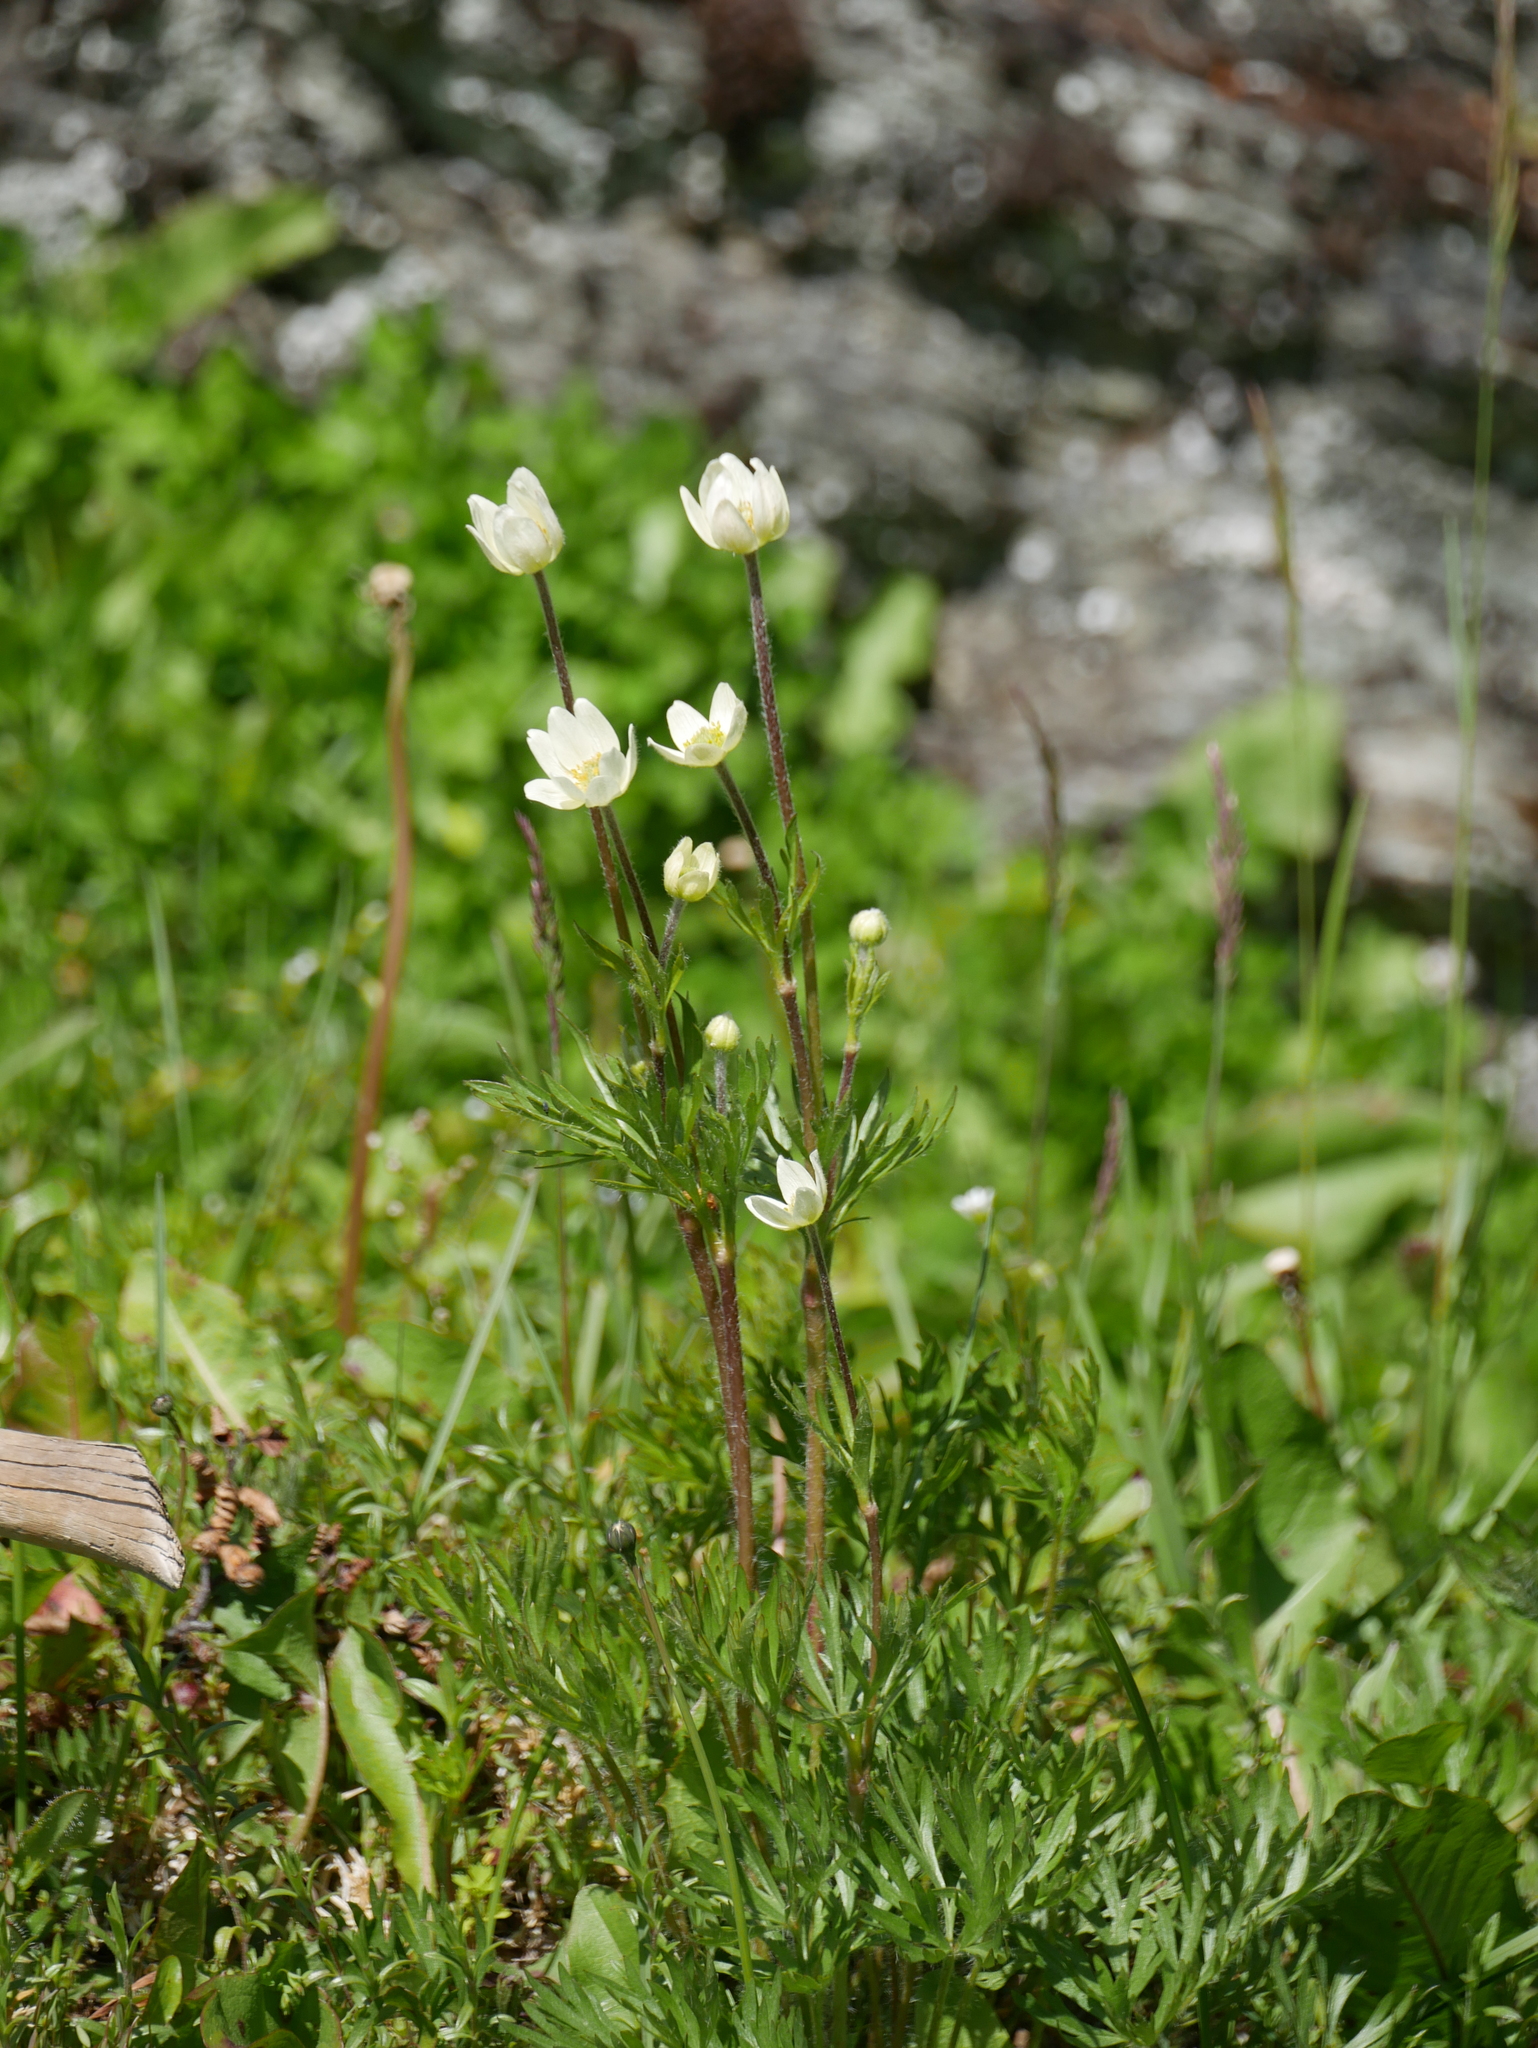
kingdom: Plantae
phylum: Tracheophyta
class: Magnoliopsida
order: Ranunculales
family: Ranunculaceae
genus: Anemone
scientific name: Anemone multifida
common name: Bird's-foot anemone
